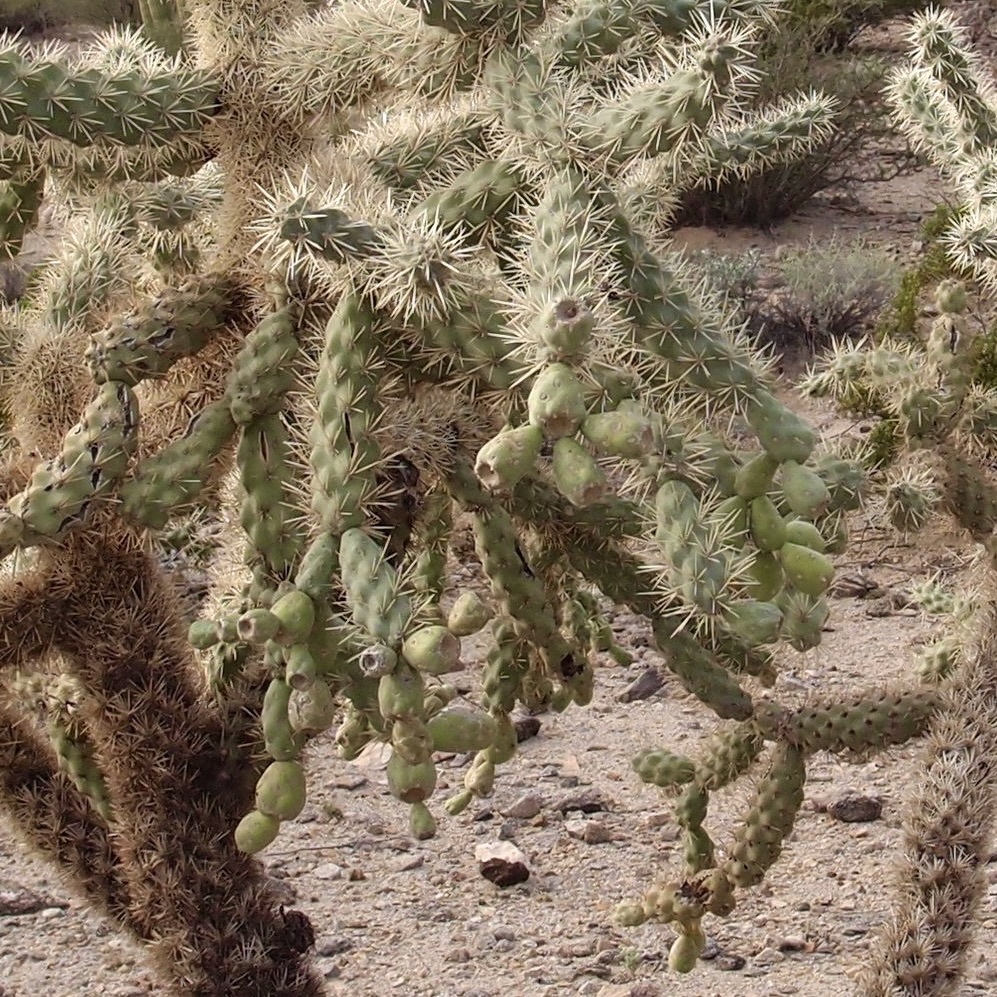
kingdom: Plantae
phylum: Tracheophyta
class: Magnoliopsida
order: Caryophyllales
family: Cactaceae
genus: Cylindropuntia
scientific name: Cylindropuntia fulgida
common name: Jumping cholla
